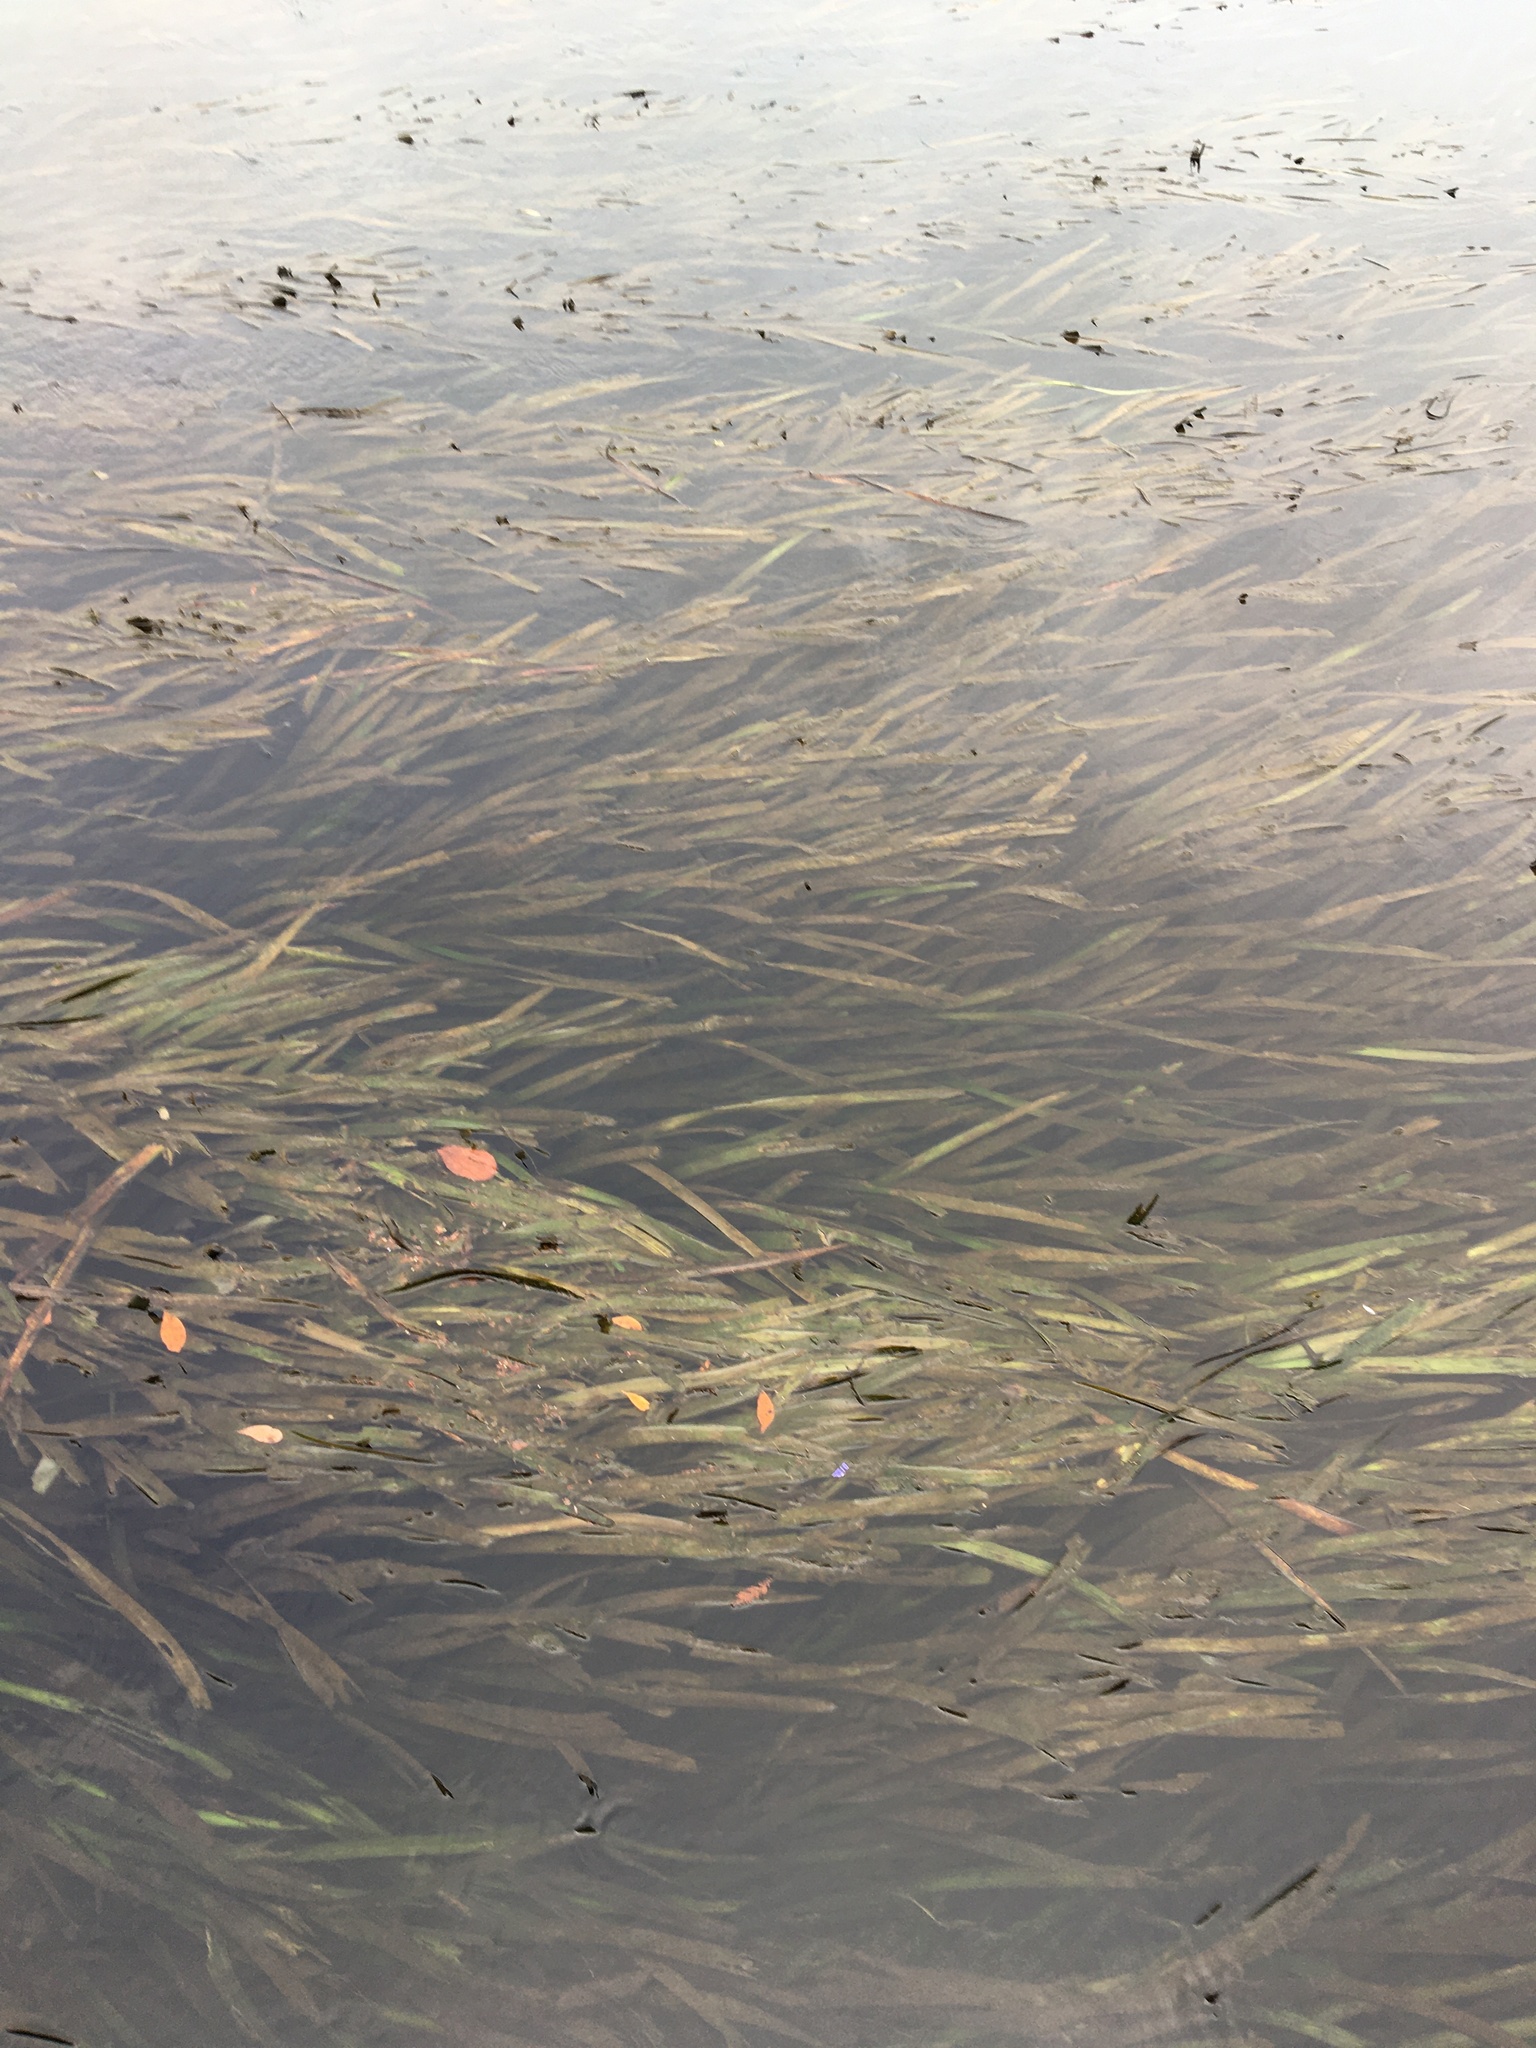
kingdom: Plantae
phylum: Tracheophyta
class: Liliopsida
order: Alismatales
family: Hydrocharitaceae
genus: Vallisneria
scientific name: Vallisneria americana
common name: American eelgrass
